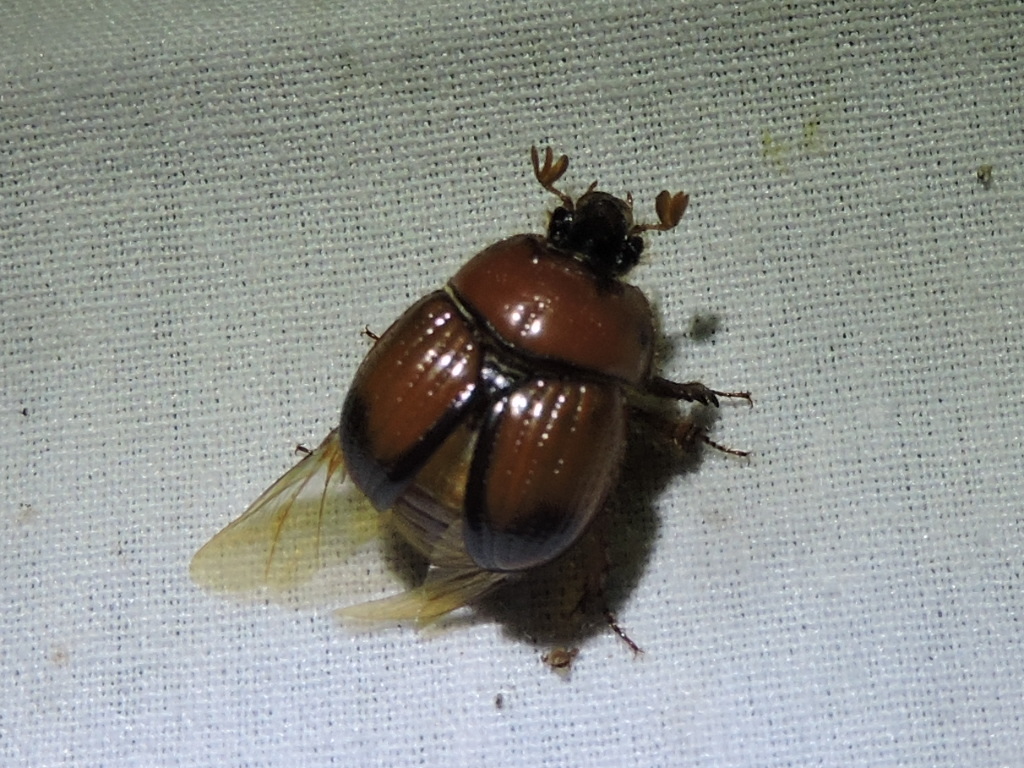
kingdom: Animalia
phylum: Arthropoda
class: Insecta
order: Coleoptera
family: Geotrupidae
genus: Bolbocerosoma
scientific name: Bolbocerosoma elongatum
